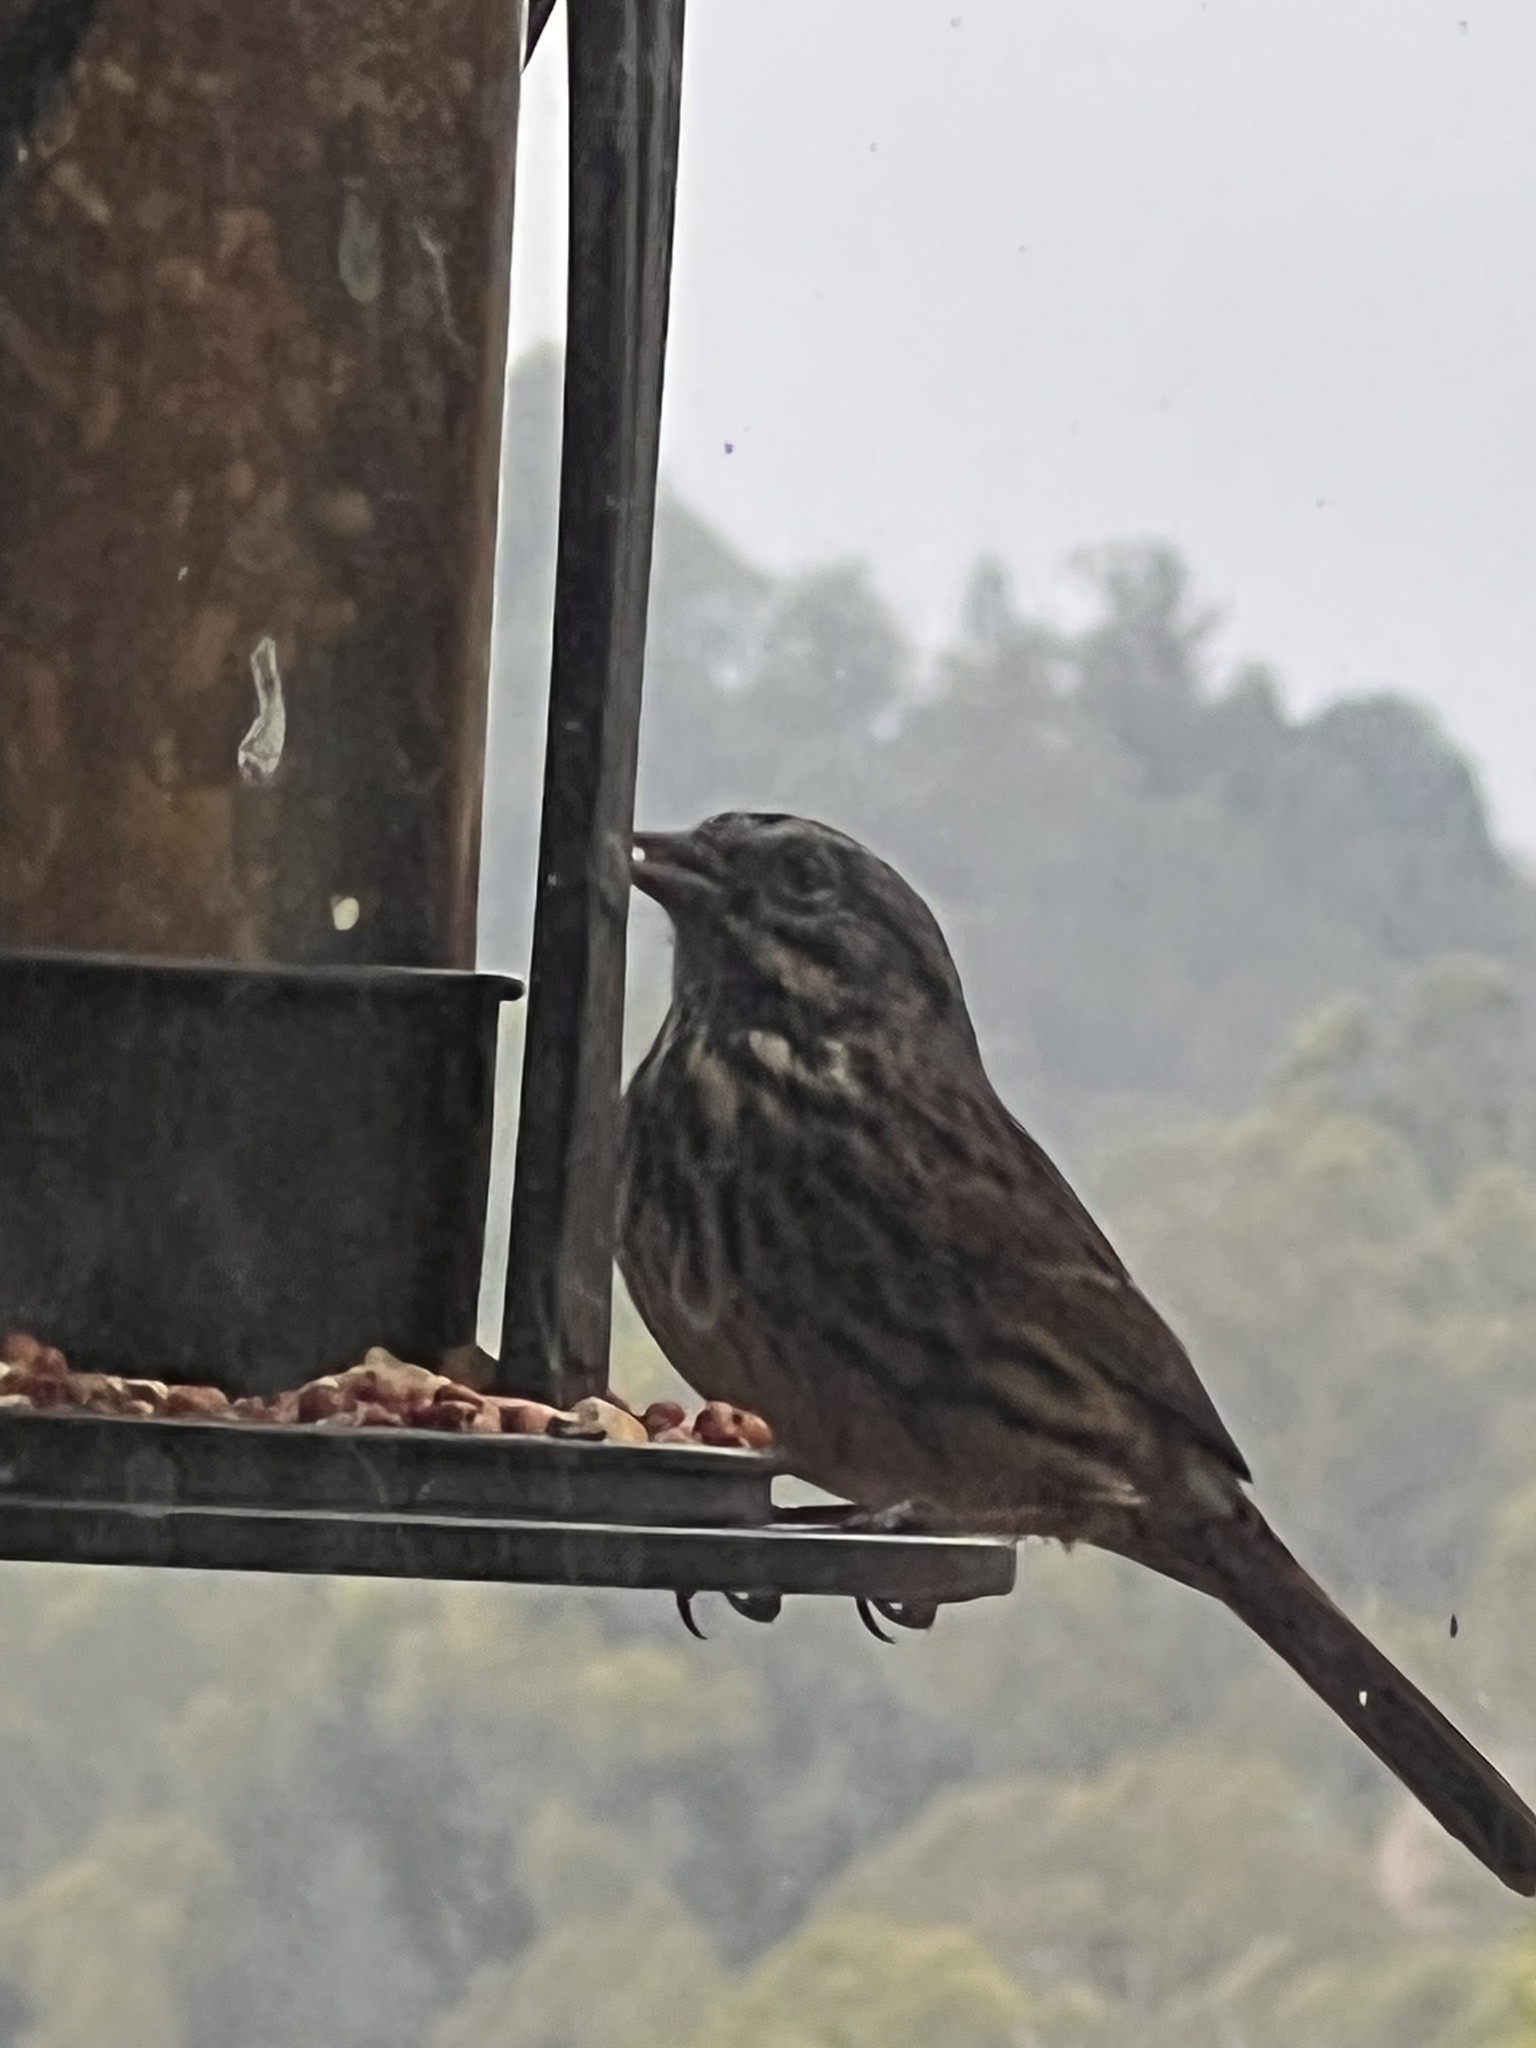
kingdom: Animalia
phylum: Chordata
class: Aves
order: Passeriformes
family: Passerellidae
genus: Melospiza
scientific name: Melospiza melodia
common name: Song sparrow
